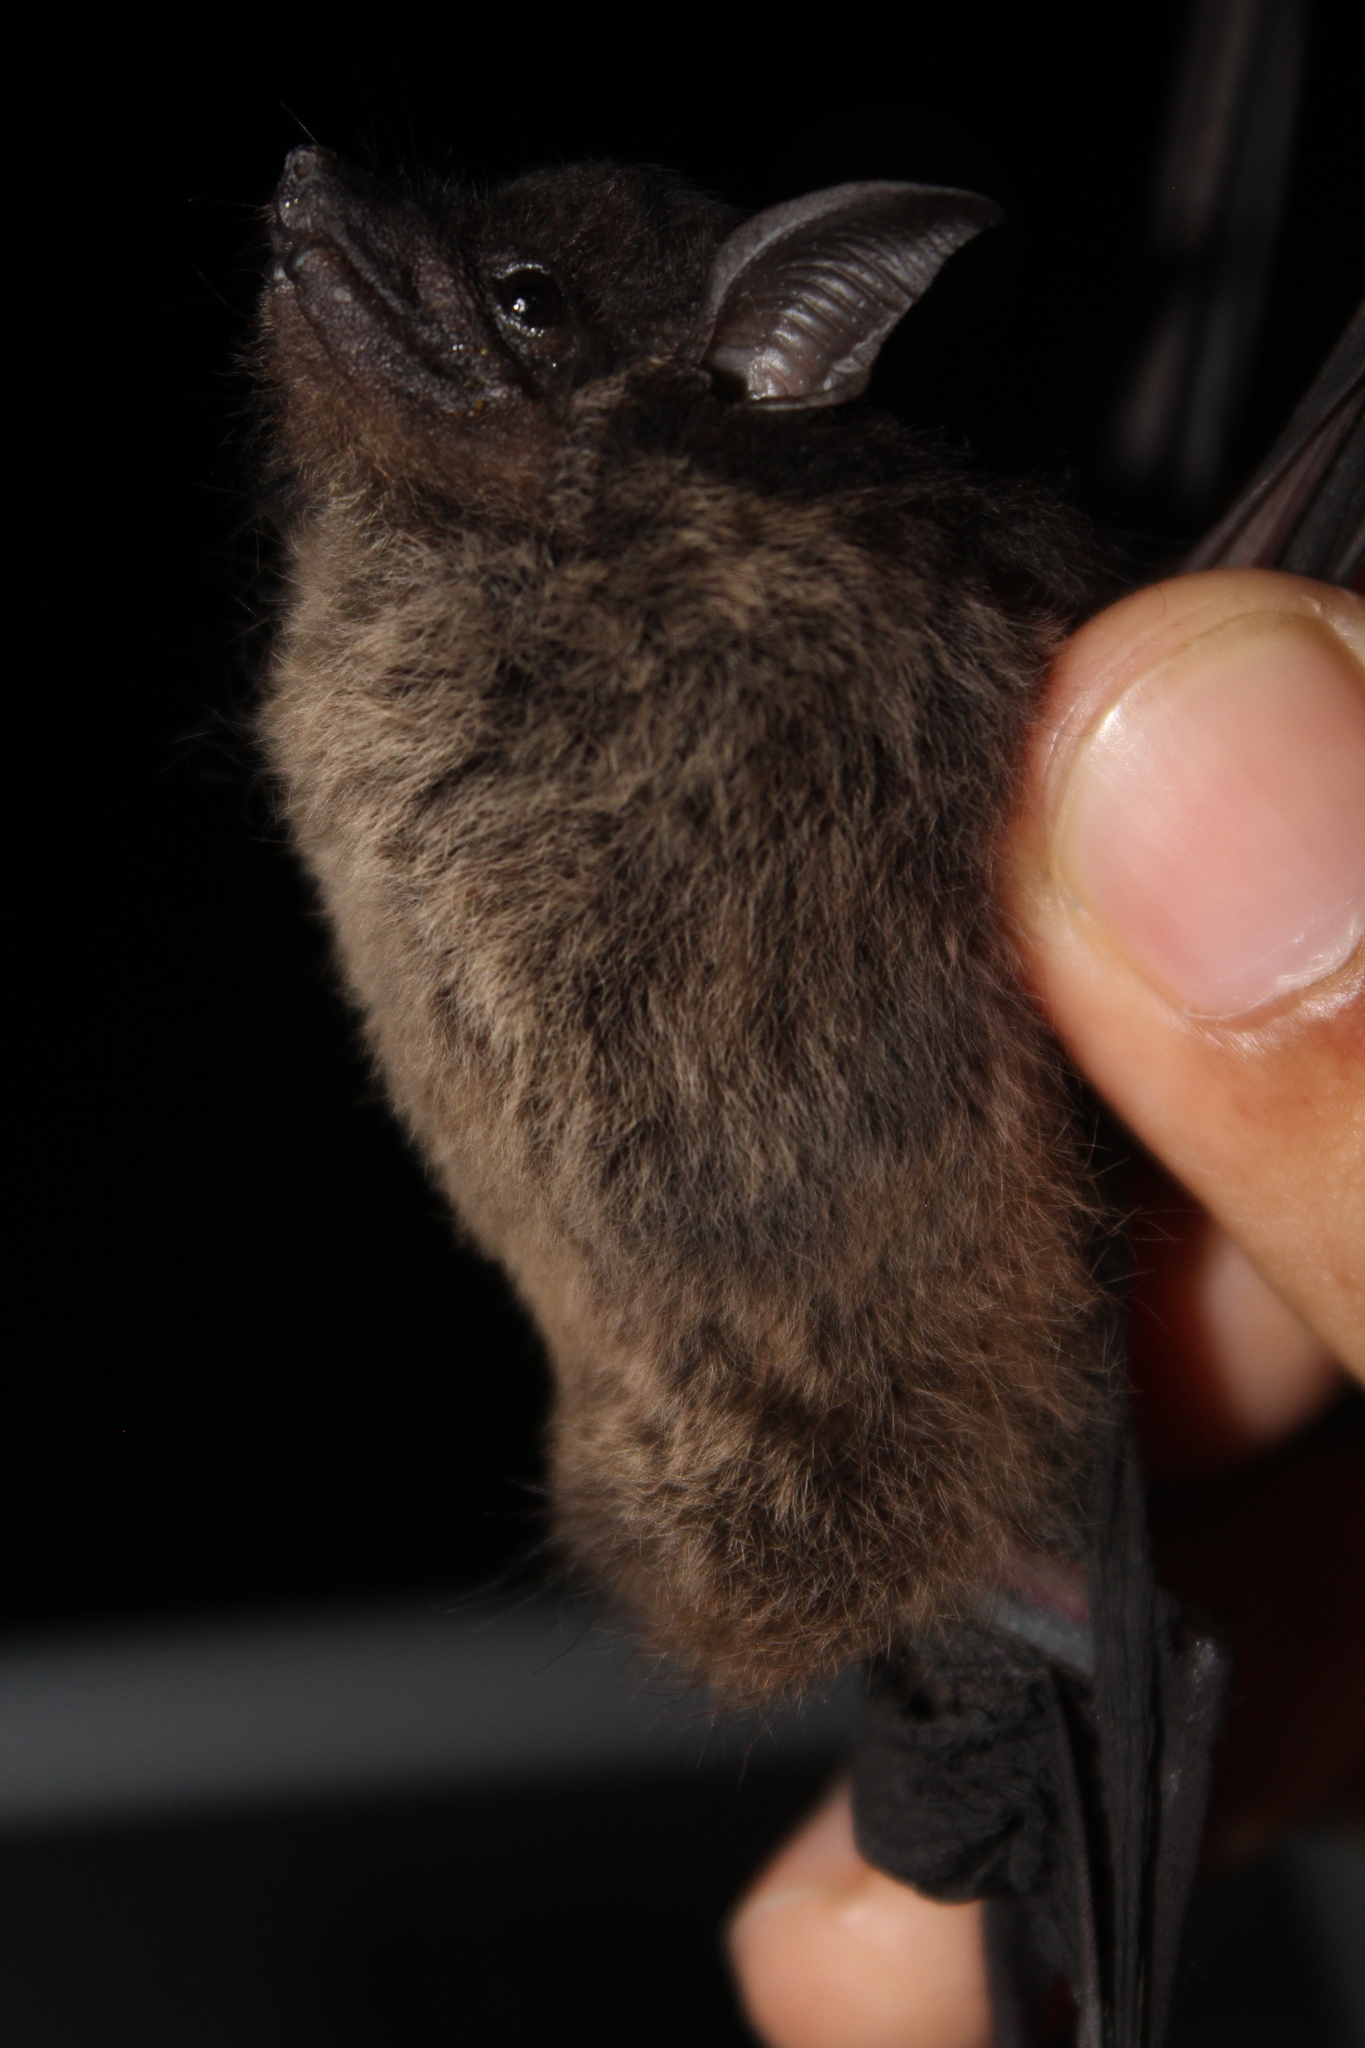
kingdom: Animalia
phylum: Chordata
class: Mammalia
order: Chiroptera
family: Emballonuridae
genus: Saccopteryx
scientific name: Saccopteryx bilineata
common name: Greater sac-winged bat
